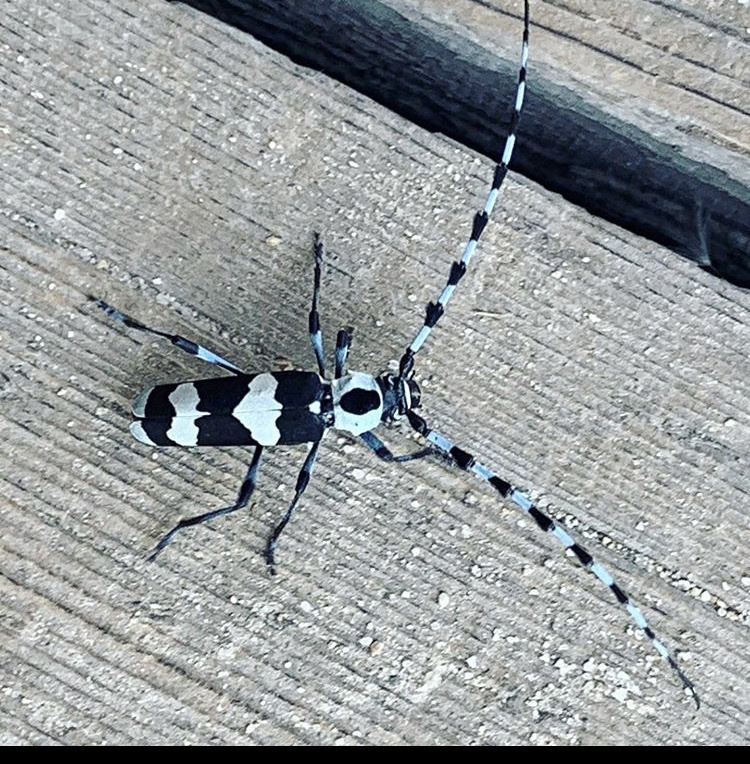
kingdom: Animalia
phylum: Arthropoda
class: Insecta
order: Coleoptera
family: Cerambycidae
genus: Rosalia
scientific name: Rosalia funebris
